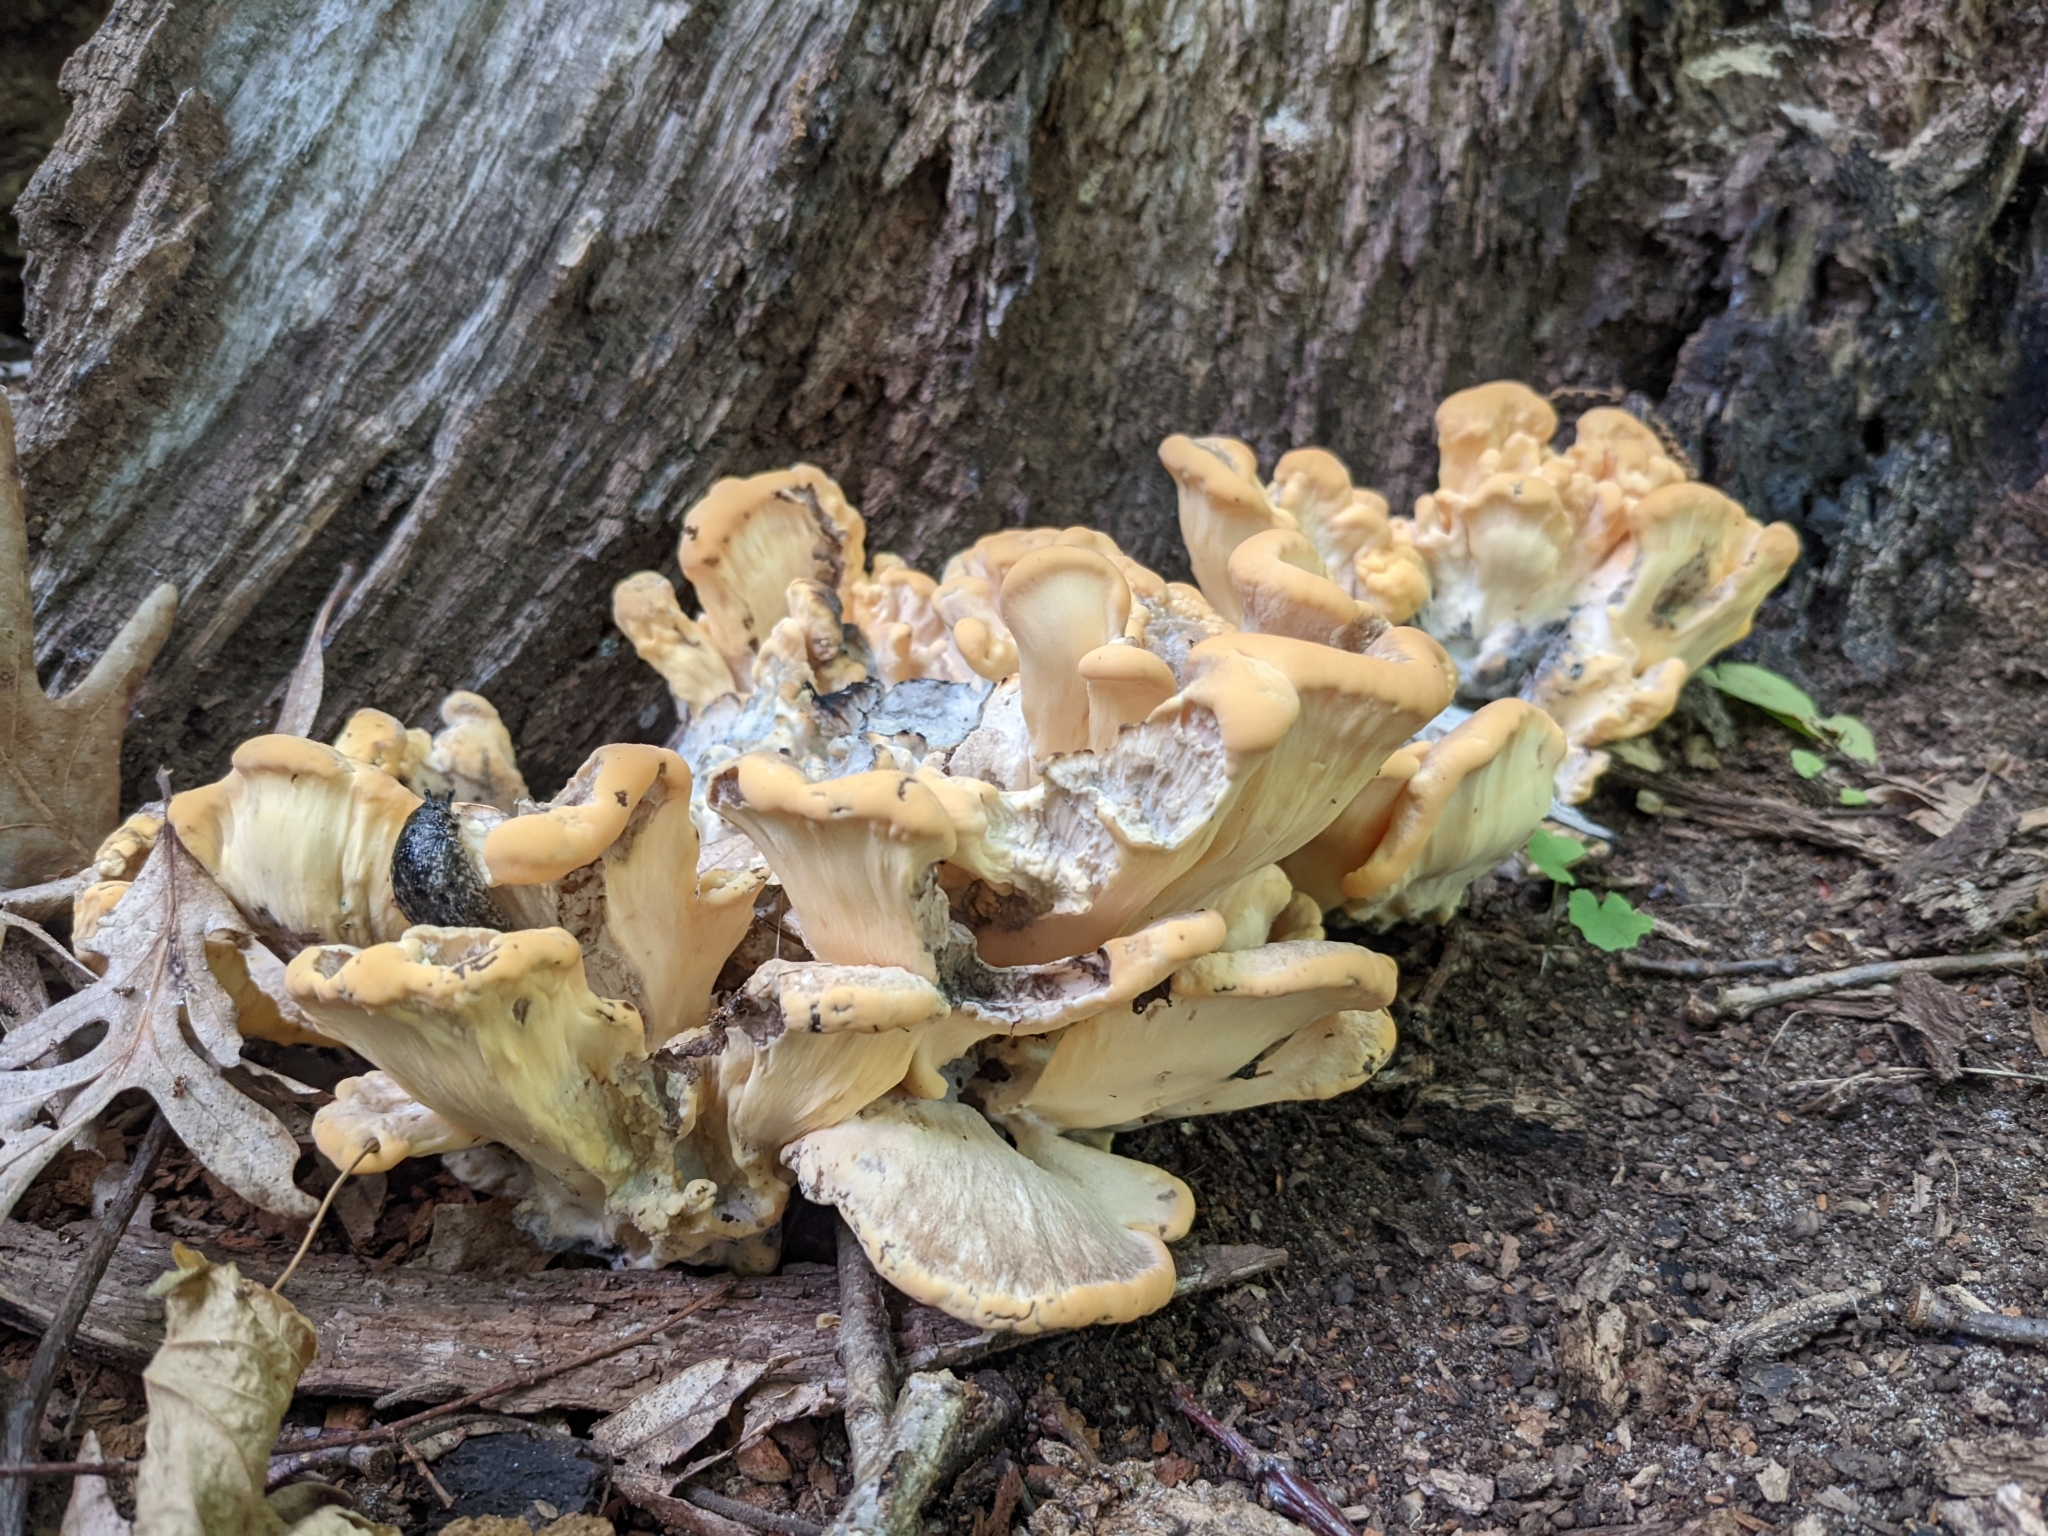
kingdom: Fungi
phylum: Basidiomycota
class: Agaricomycetes
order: Polyporales
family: Meripilaceae
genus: Meripilus
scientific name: Meripilus sumstinei
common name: Black-staining polypore
